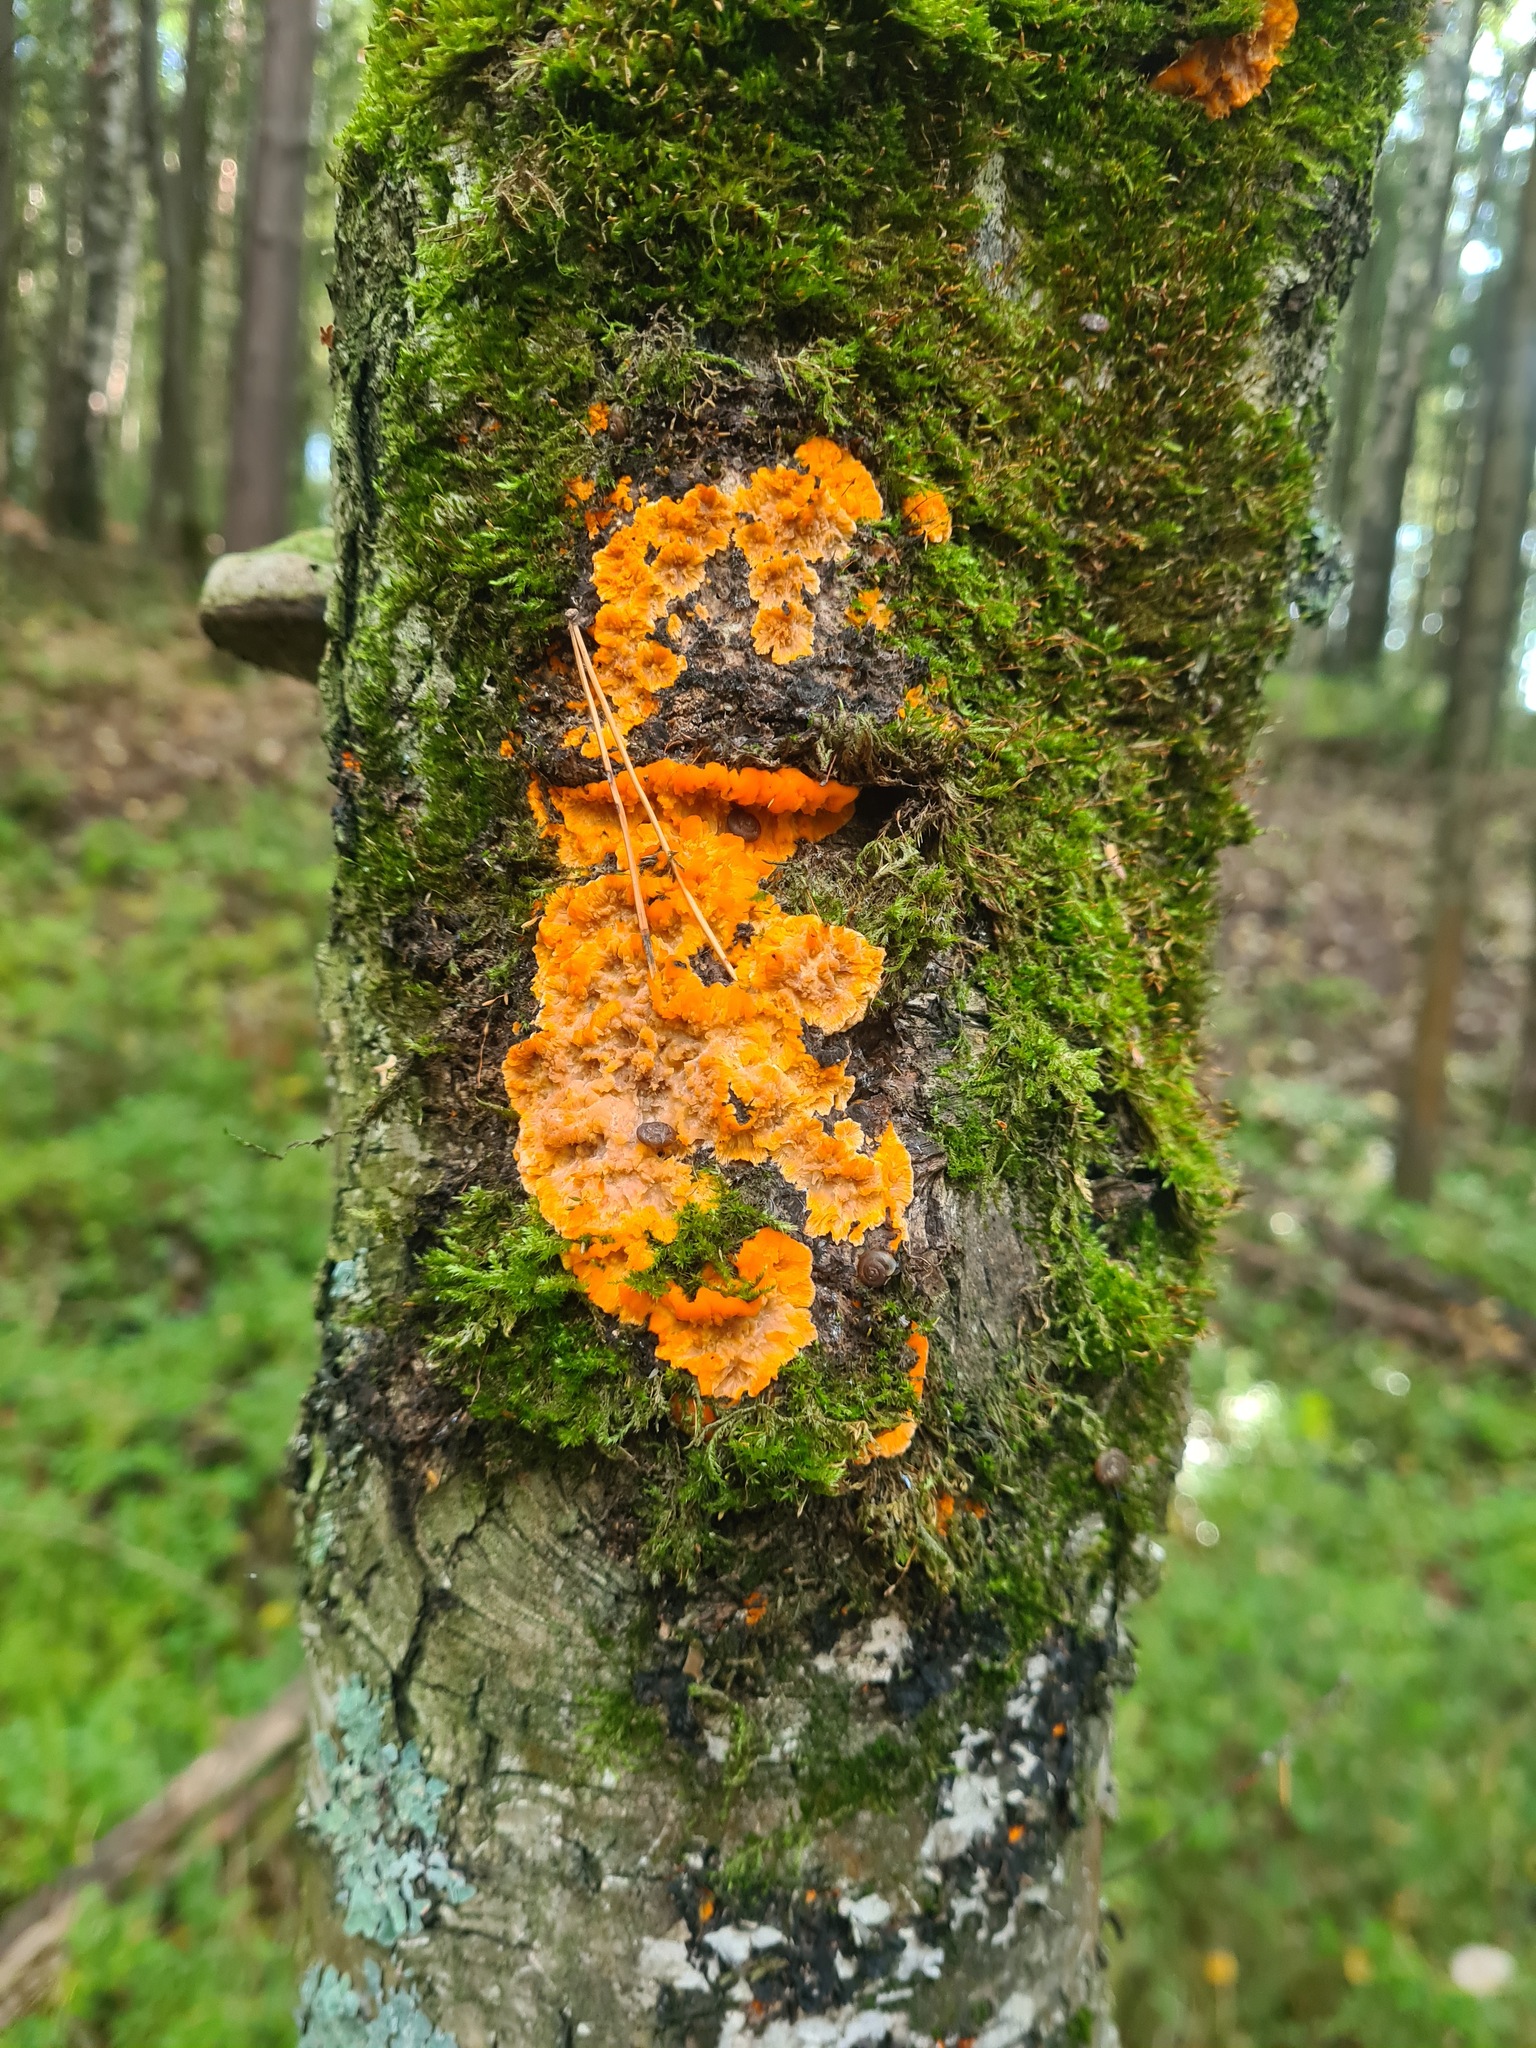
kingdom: Fungi
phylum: Basidiomycota
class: Agaricomycetes
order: Polyporales
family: Meruliaceae
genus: Phlebia
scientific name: Phlebia radiata
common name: Wrinkled crust
